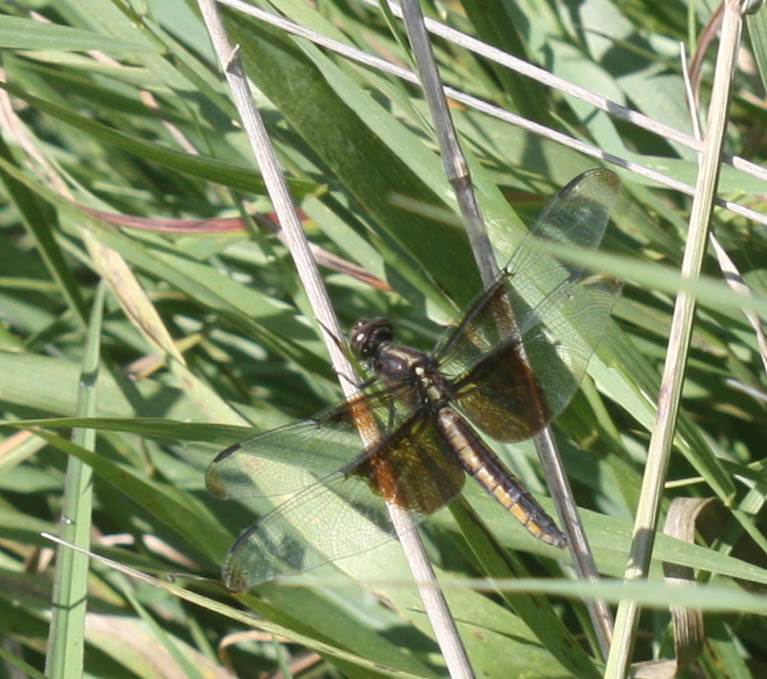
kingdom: Animalia
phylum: Arthropoda
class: Insecta
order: Odonata
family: Libellulidae
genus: Libellula
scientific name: Libellula luctuosa
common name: Widow skimmer
